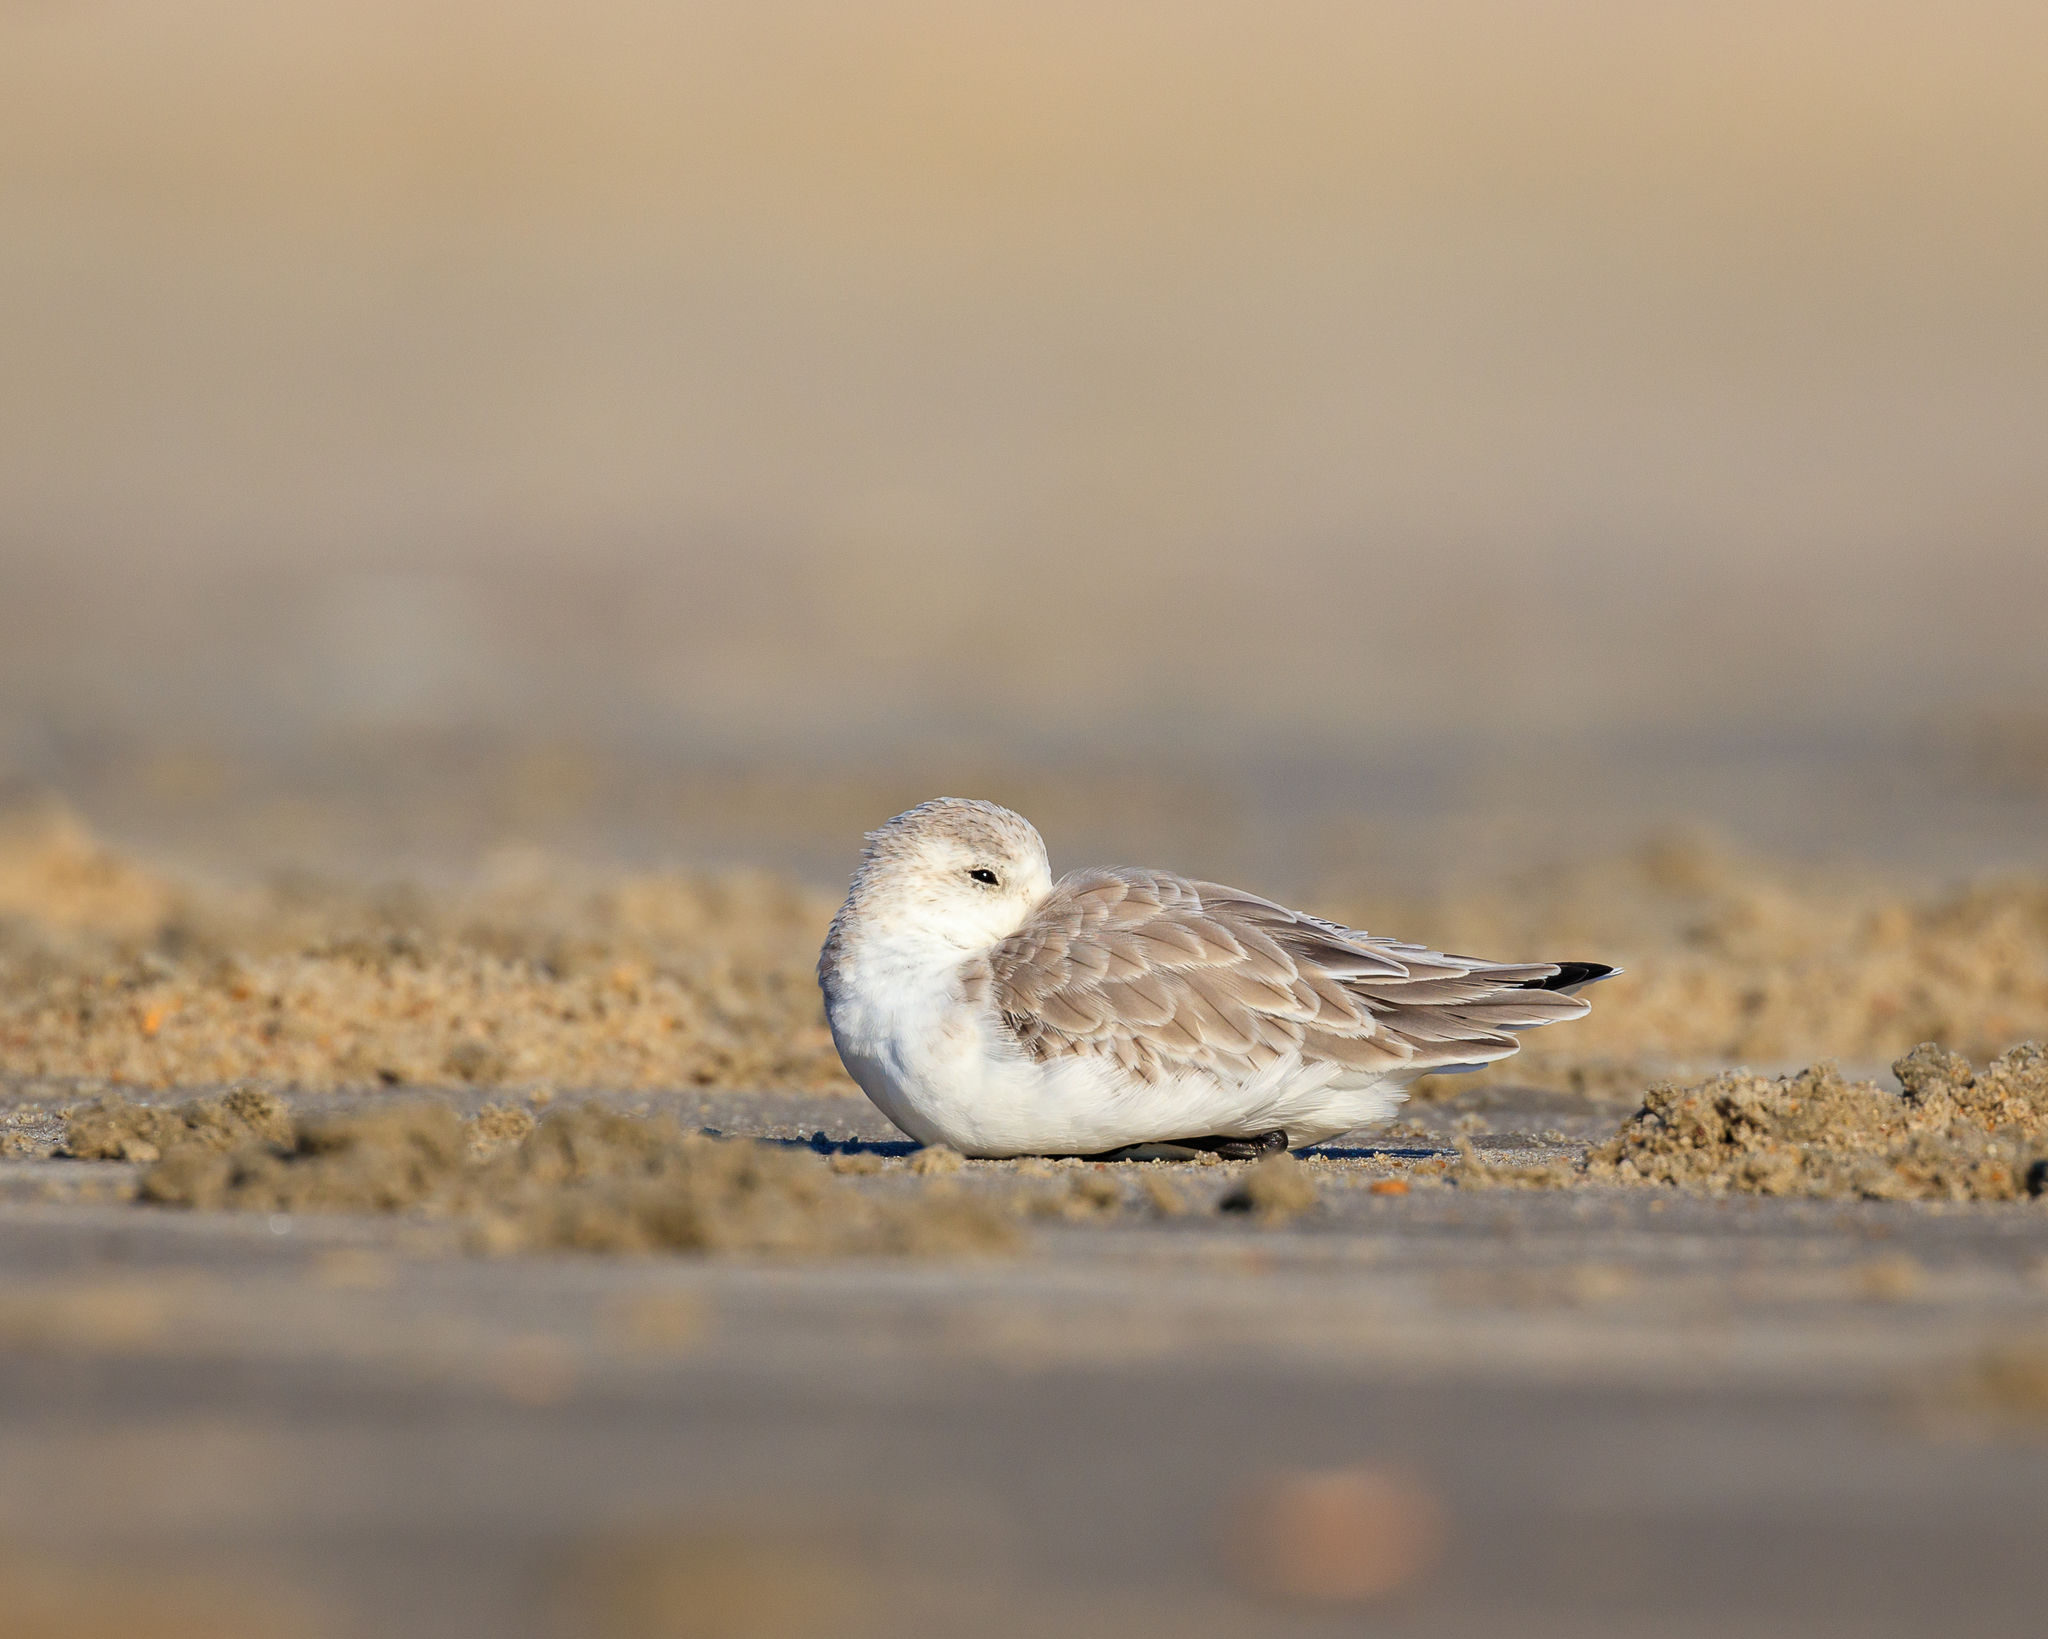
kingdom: Animalia
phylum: Chordata
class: Aves
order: Charadriiformes
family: Scolopacidae
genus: Calidris
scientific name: Calidris alba
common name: Sanderling
